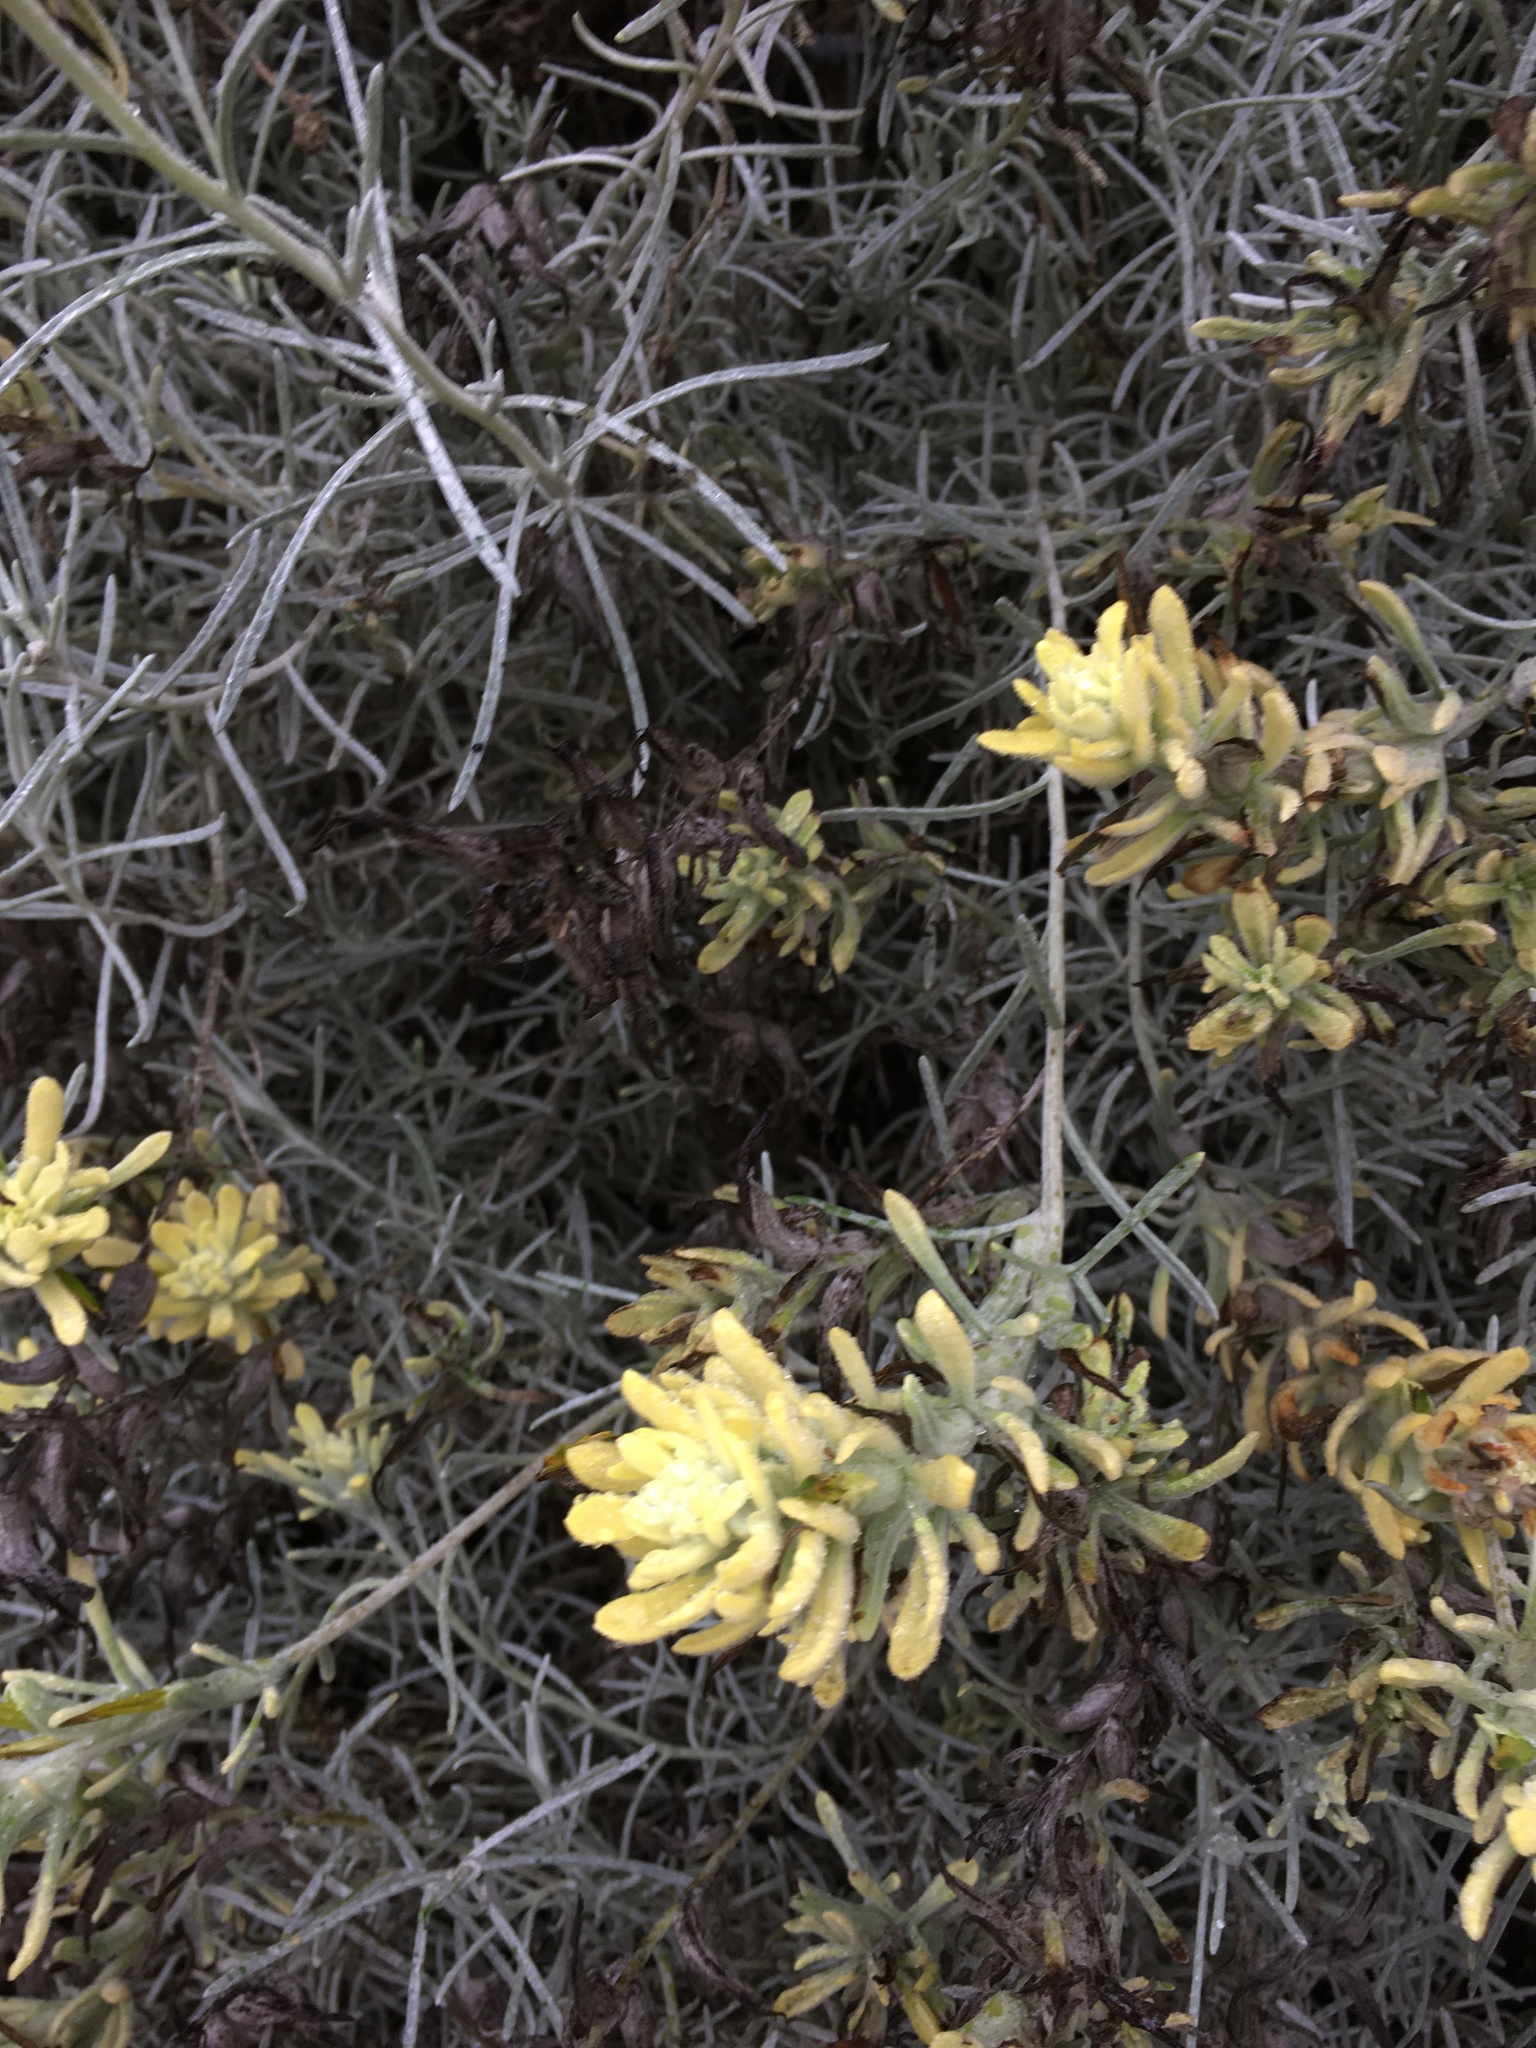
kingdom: Plantae
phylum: Tracheophyta
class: Magnoliopsida
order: Lamiales
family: Orobanchaceae
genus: Castilleja
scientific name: Castilleja hololeuca
